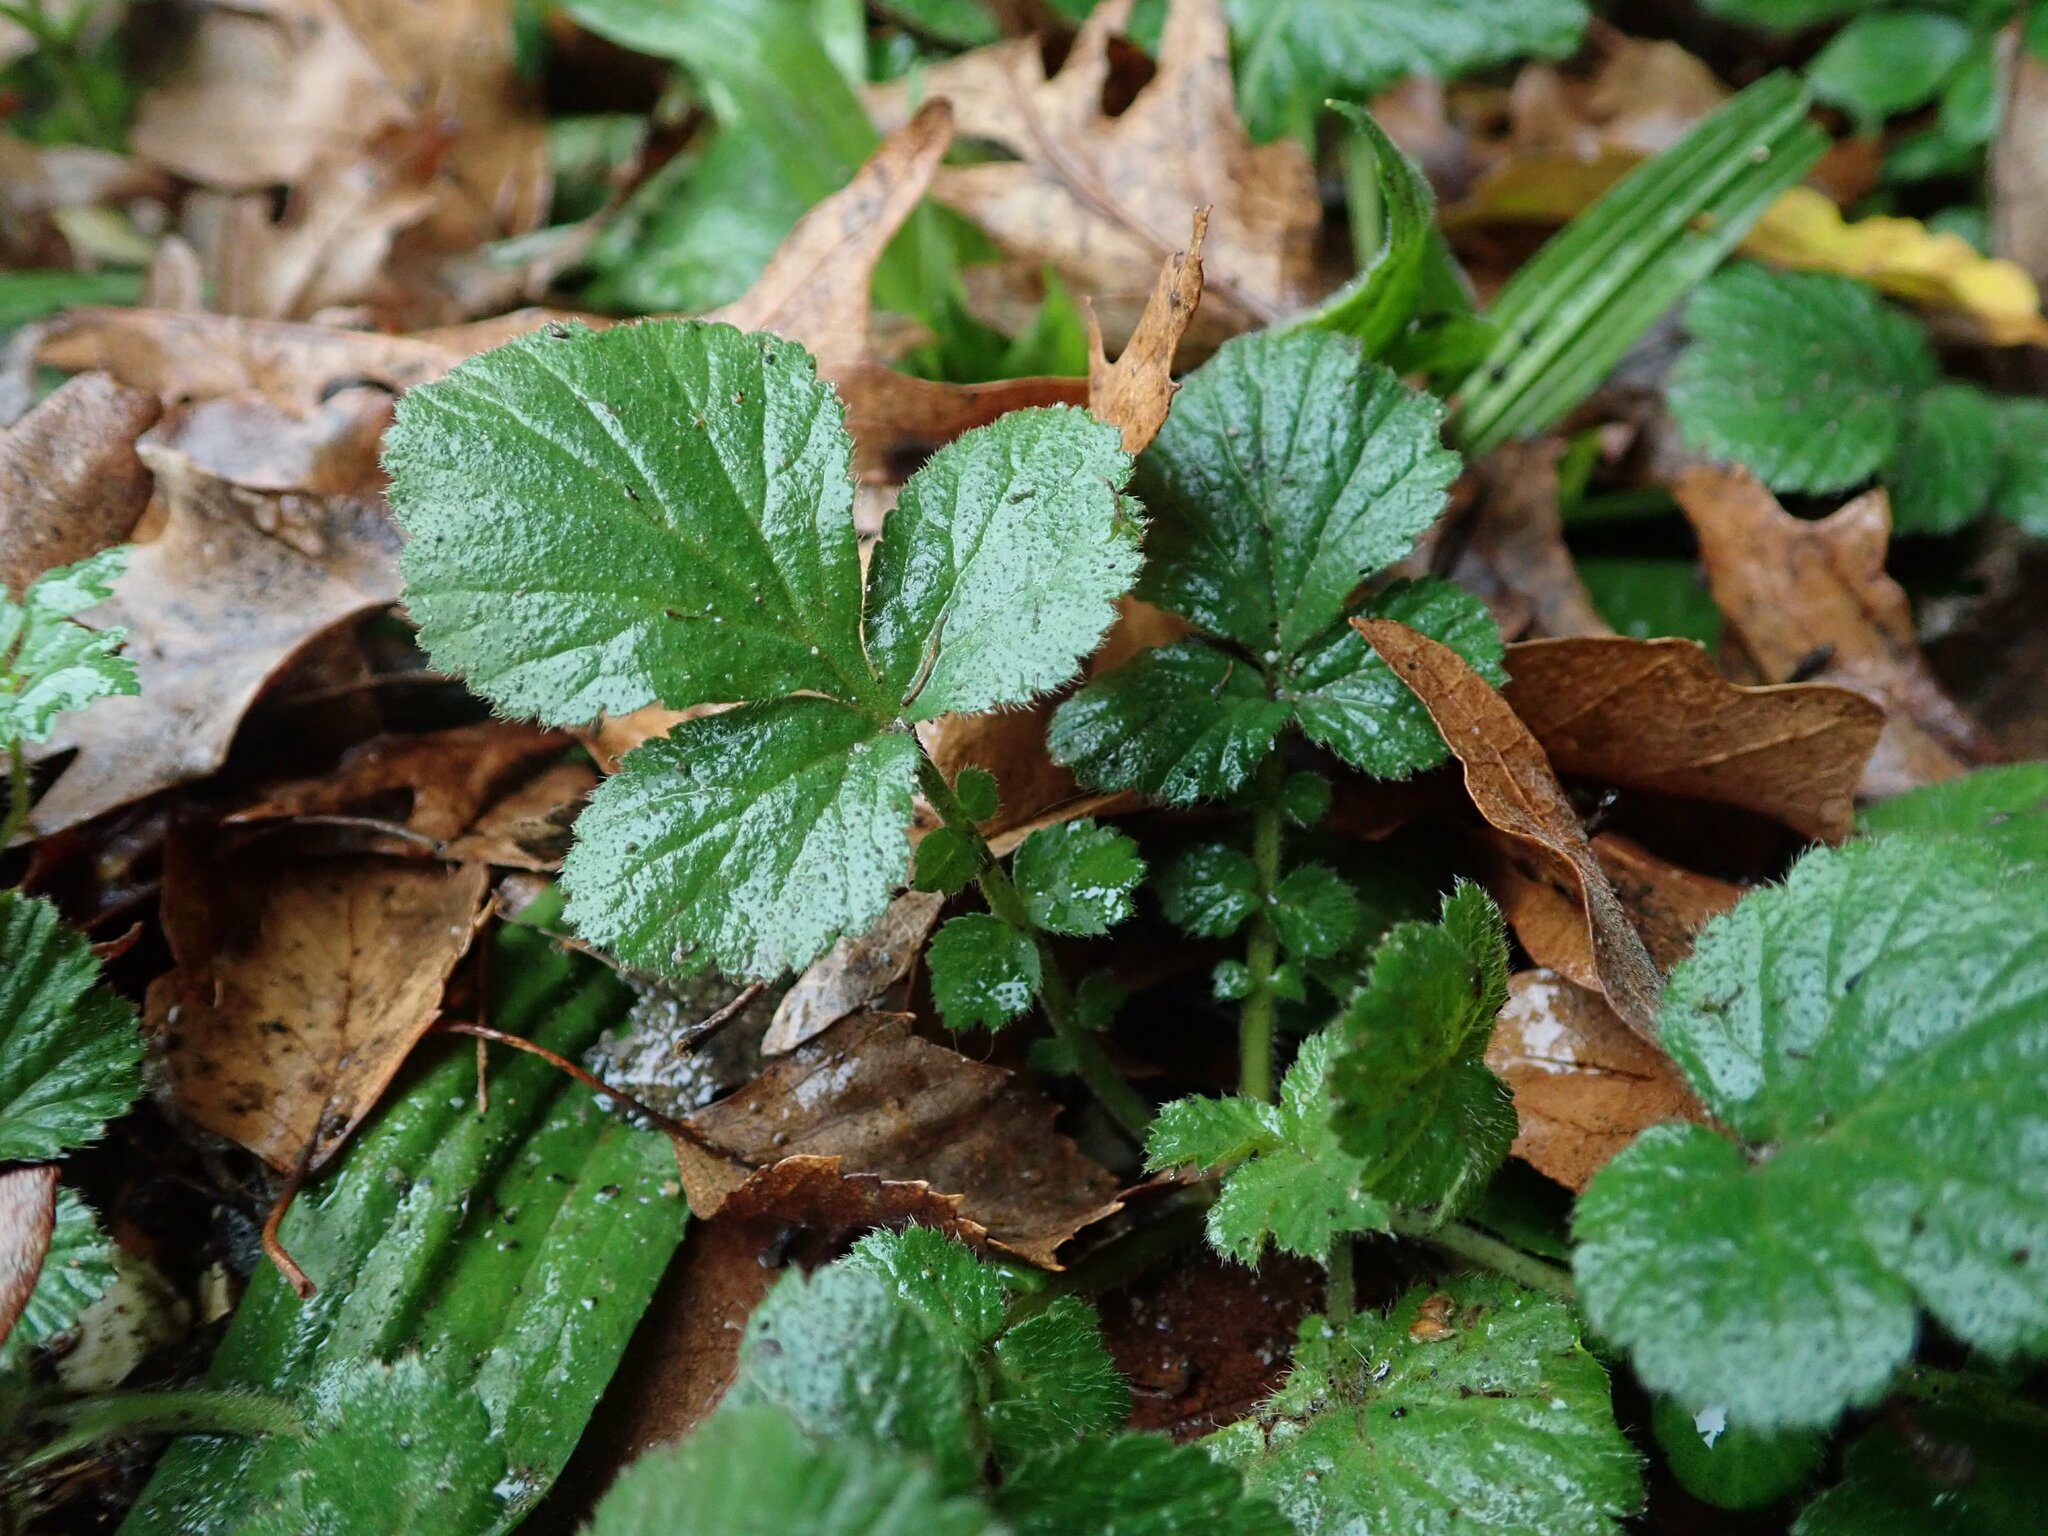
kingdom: Plantae
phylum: Tracheophyta
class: Magnoliopsida
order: Rosales
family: Rosaceae
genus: Geum
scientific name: Geum urbanum
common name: Wood avens
